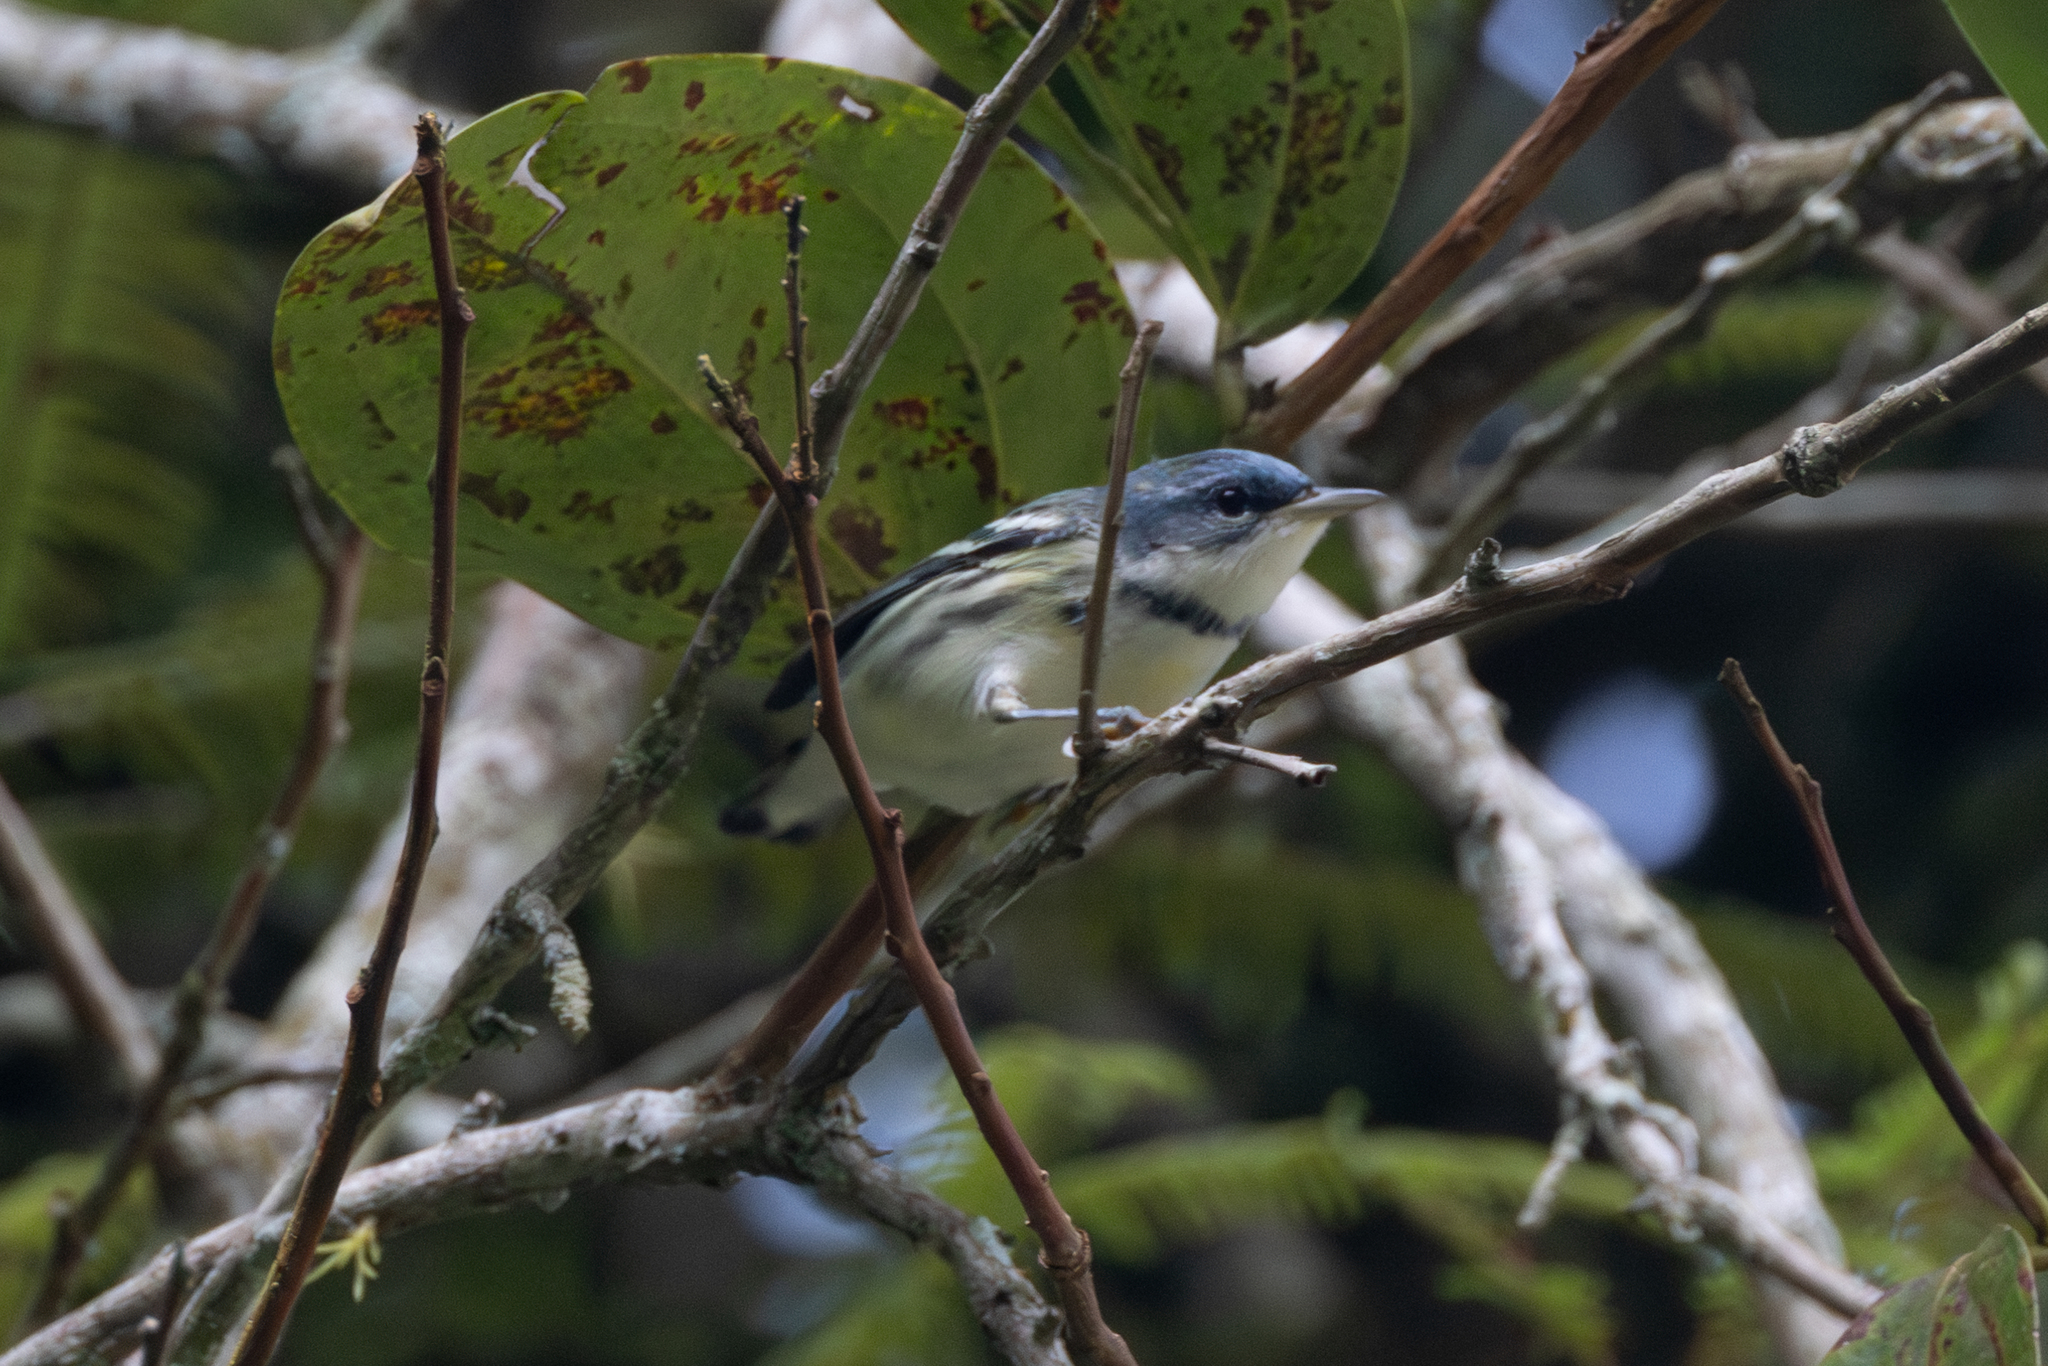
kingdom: Animalia
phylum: Chordata
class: Aves
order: Passeriformes
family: Parulidae
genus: Setophaga
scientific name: Setophaga cerulea
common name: Cerulean warbler
